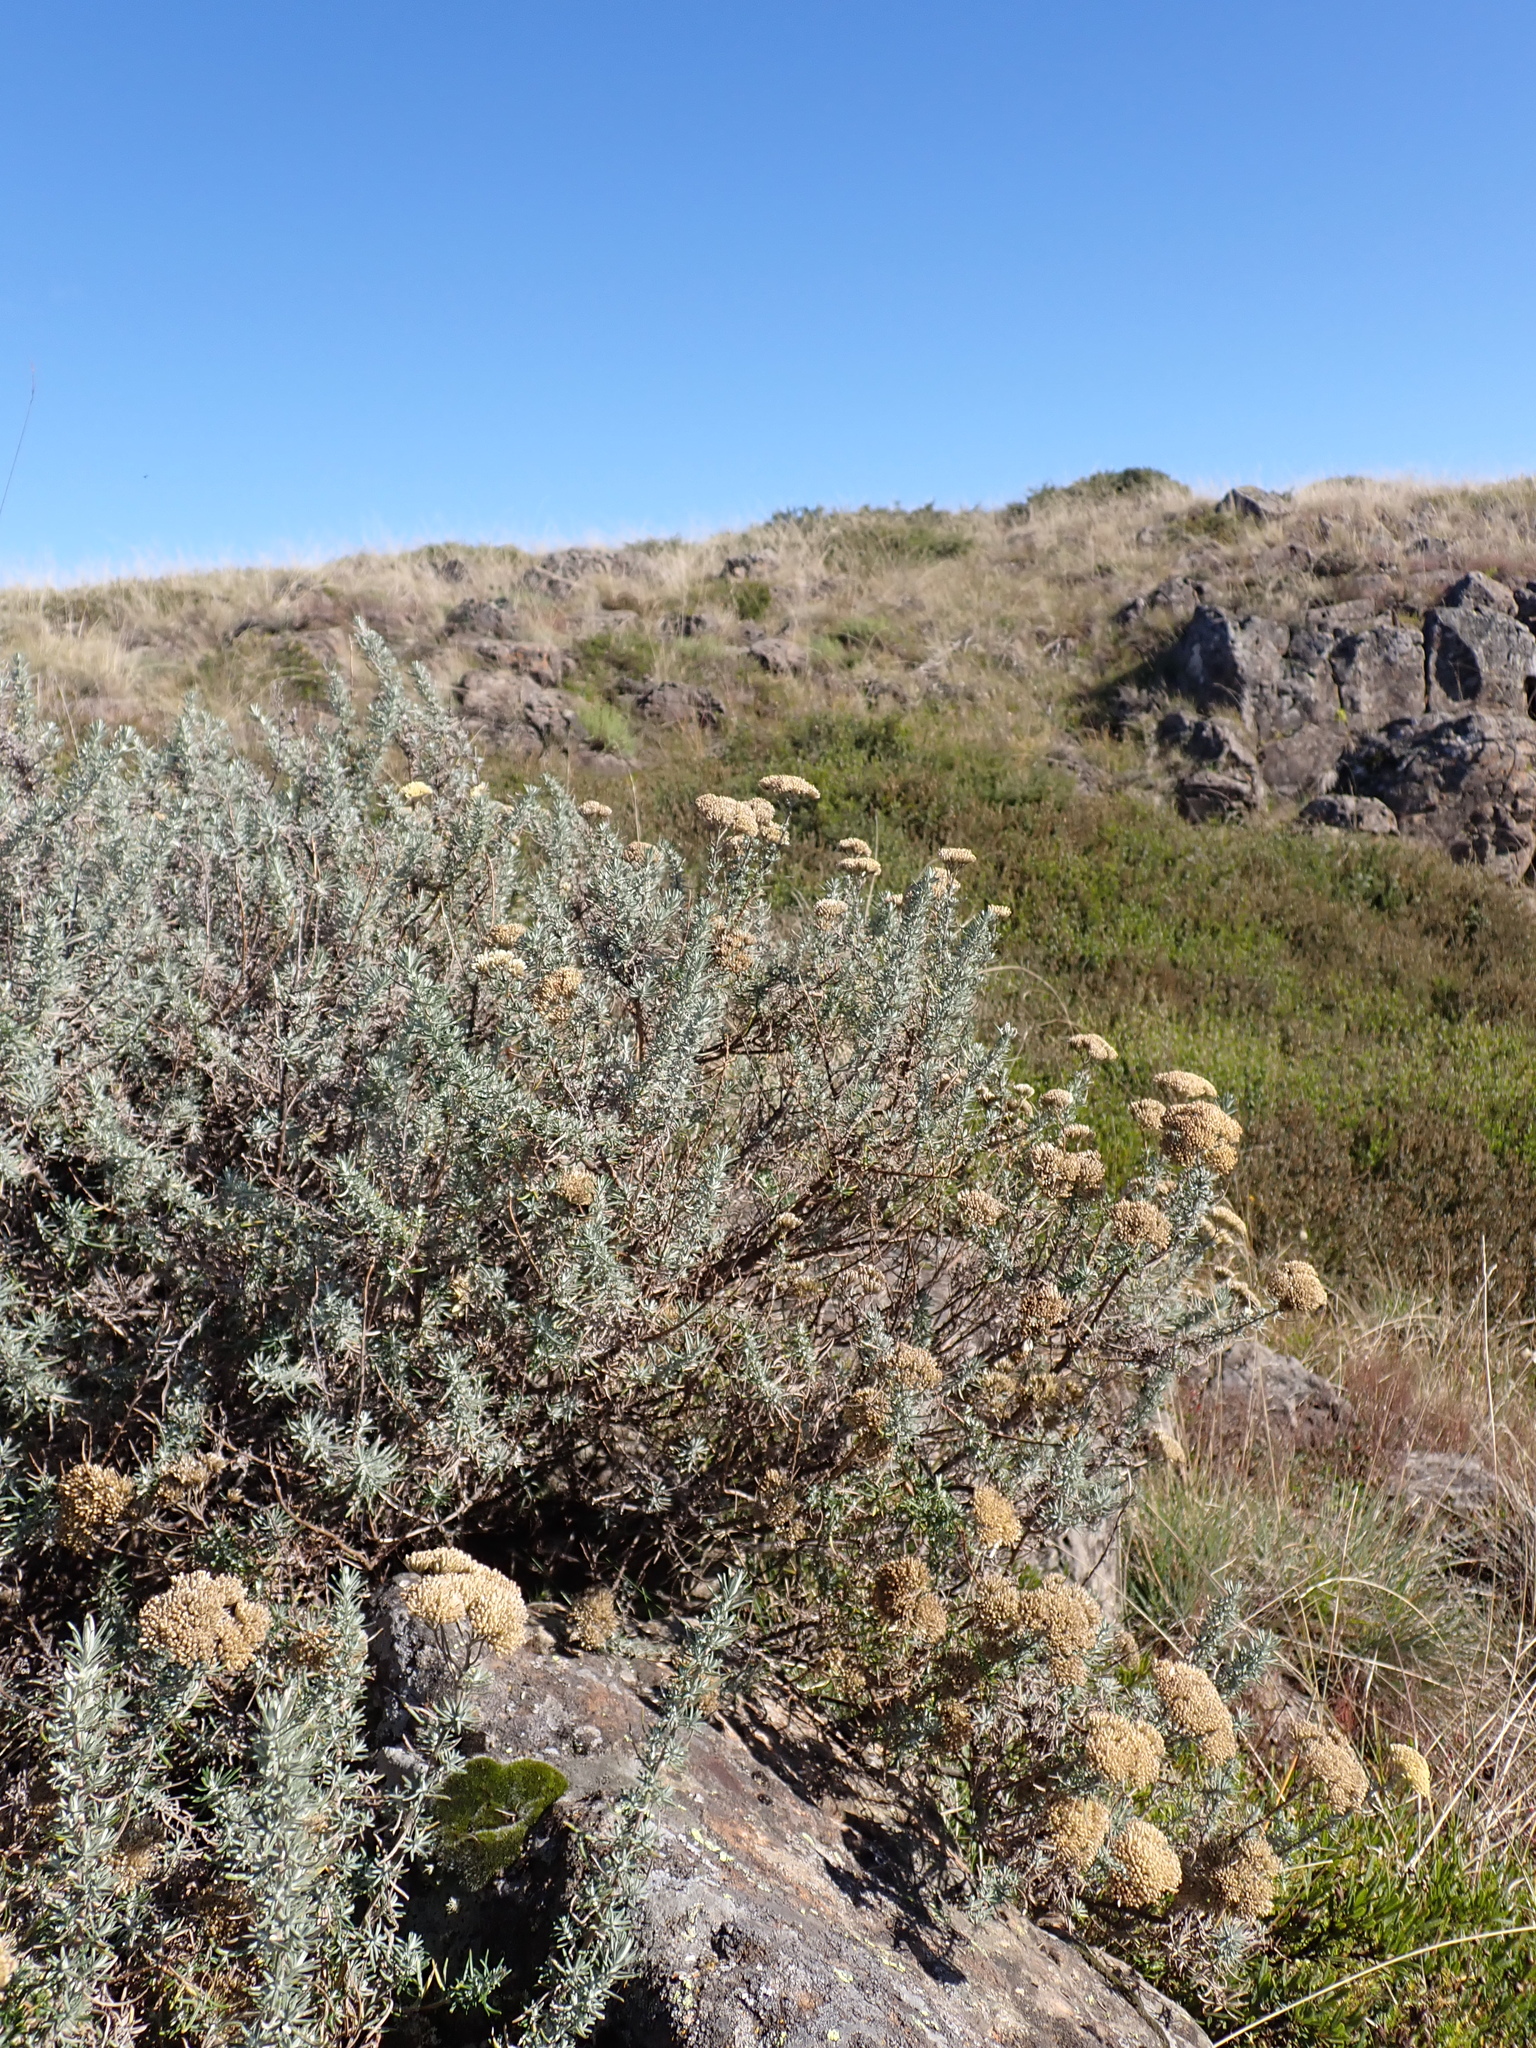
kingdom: Plantae
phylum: Tracheophyta
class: Magnoliopsida
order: Asterales
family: Asteraceae
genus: Cassinia
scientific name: Cassinia monticola
